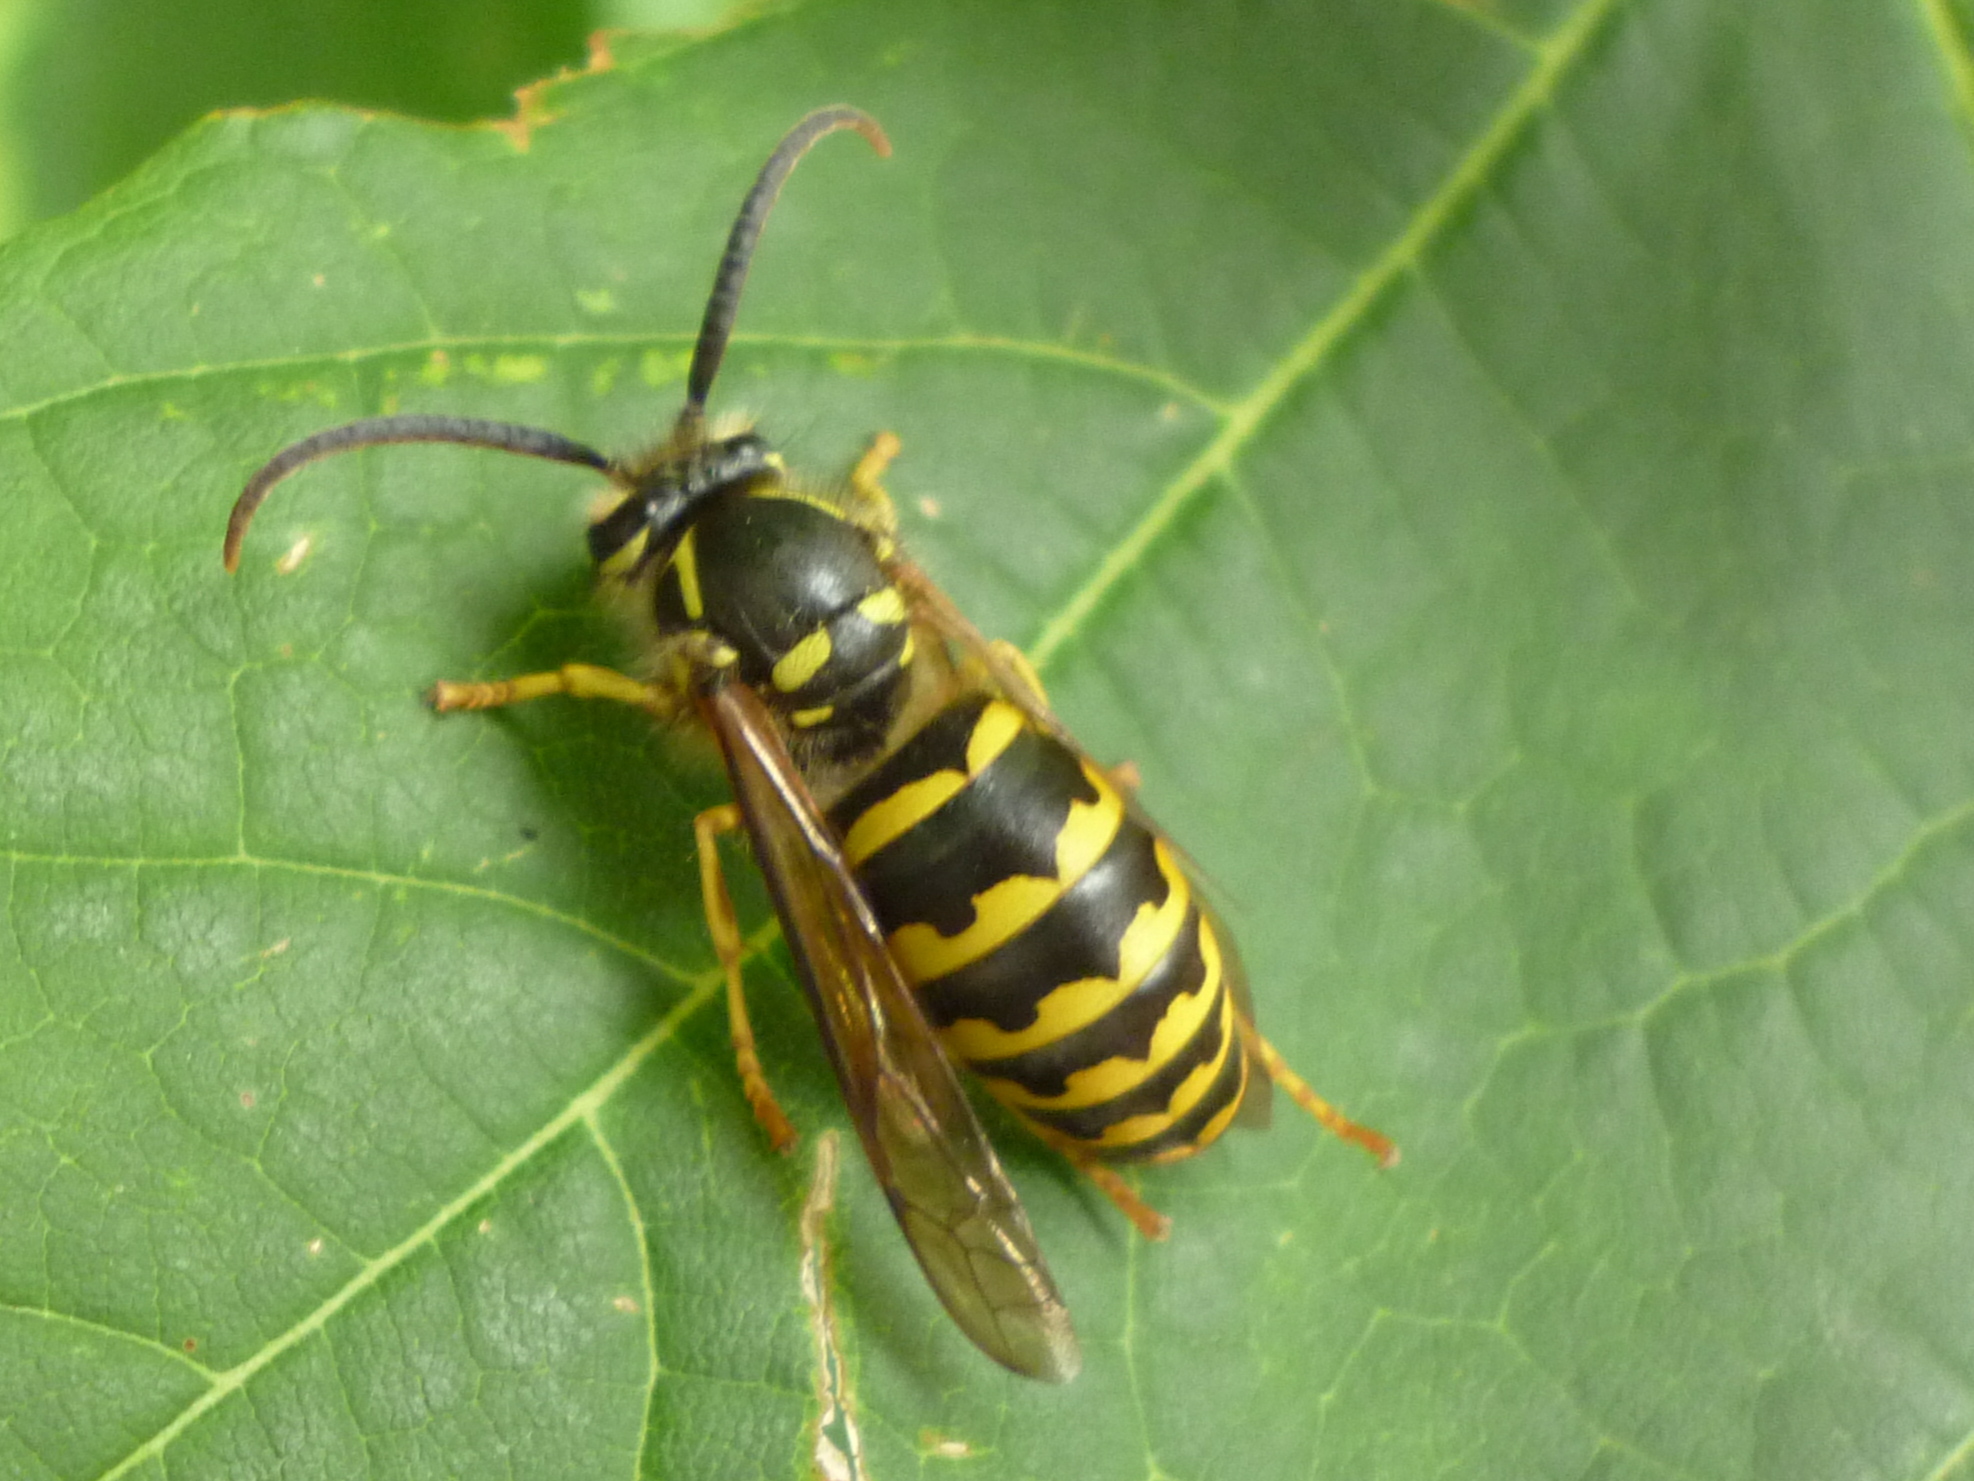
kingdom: Animalia
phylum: Arthropoda
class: Insecta
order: Hymenoptera
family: Vespidae
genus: Dolichovespula
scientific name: Dolichovespula arenaria
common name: Aerial yellowjacket
